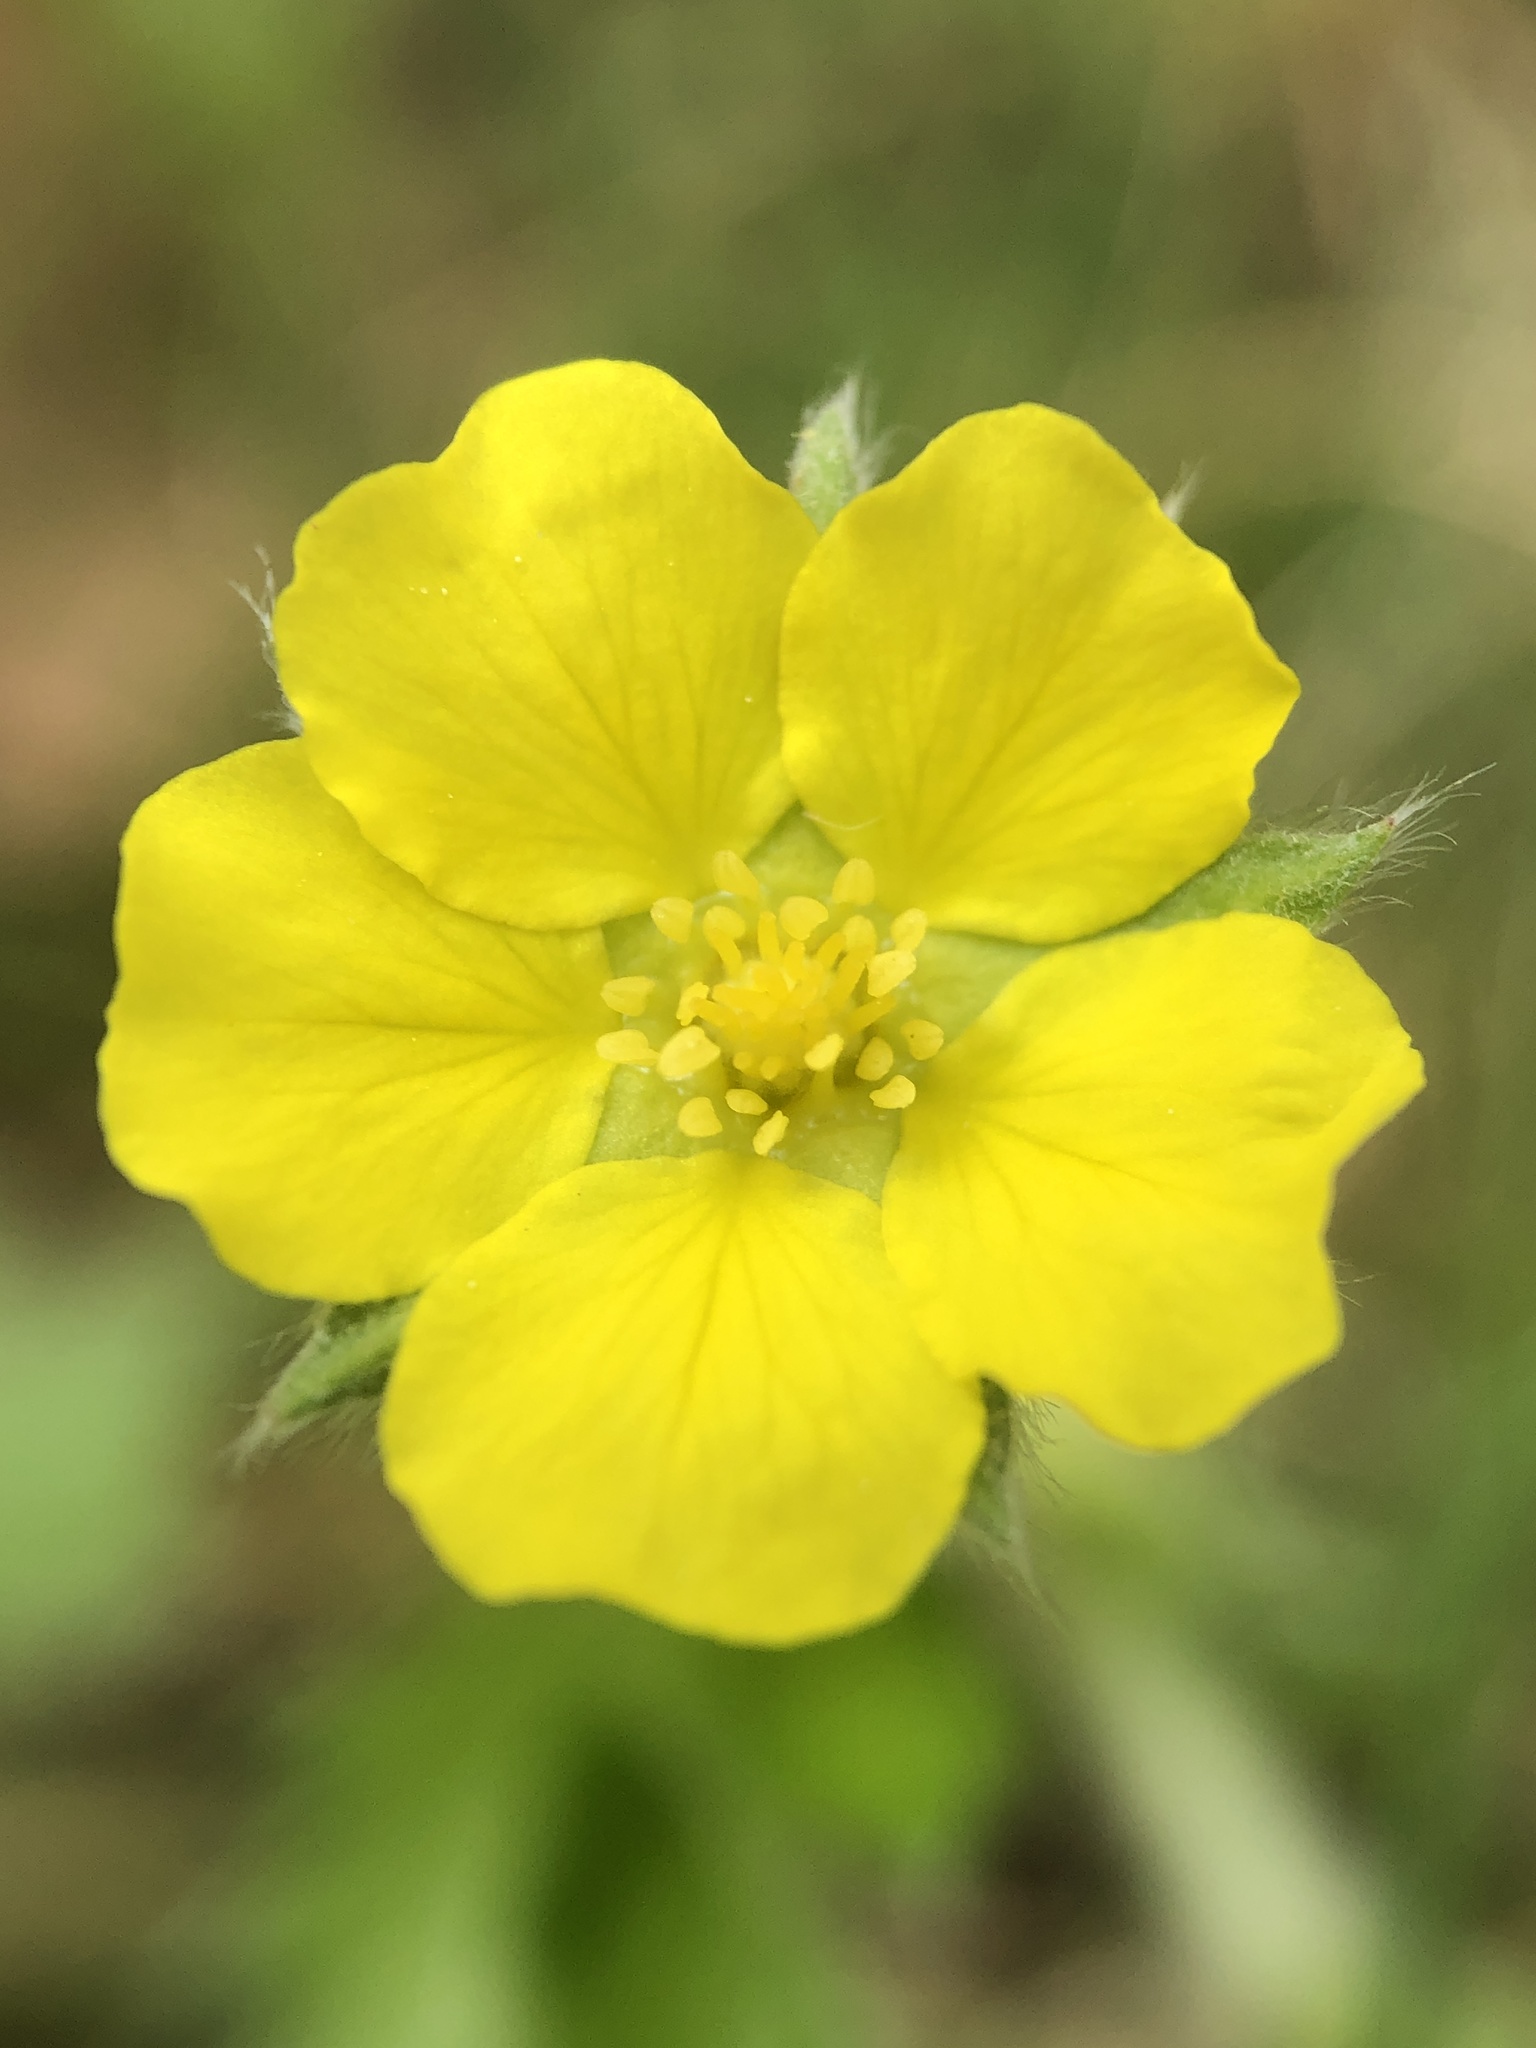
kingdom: Plantae
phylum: Tracheophyta
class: Magnoliopsida
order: Rosales
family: Rosaceae
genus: Potentilla
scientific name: Potentilla simplex
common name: Old field cinquefoil
